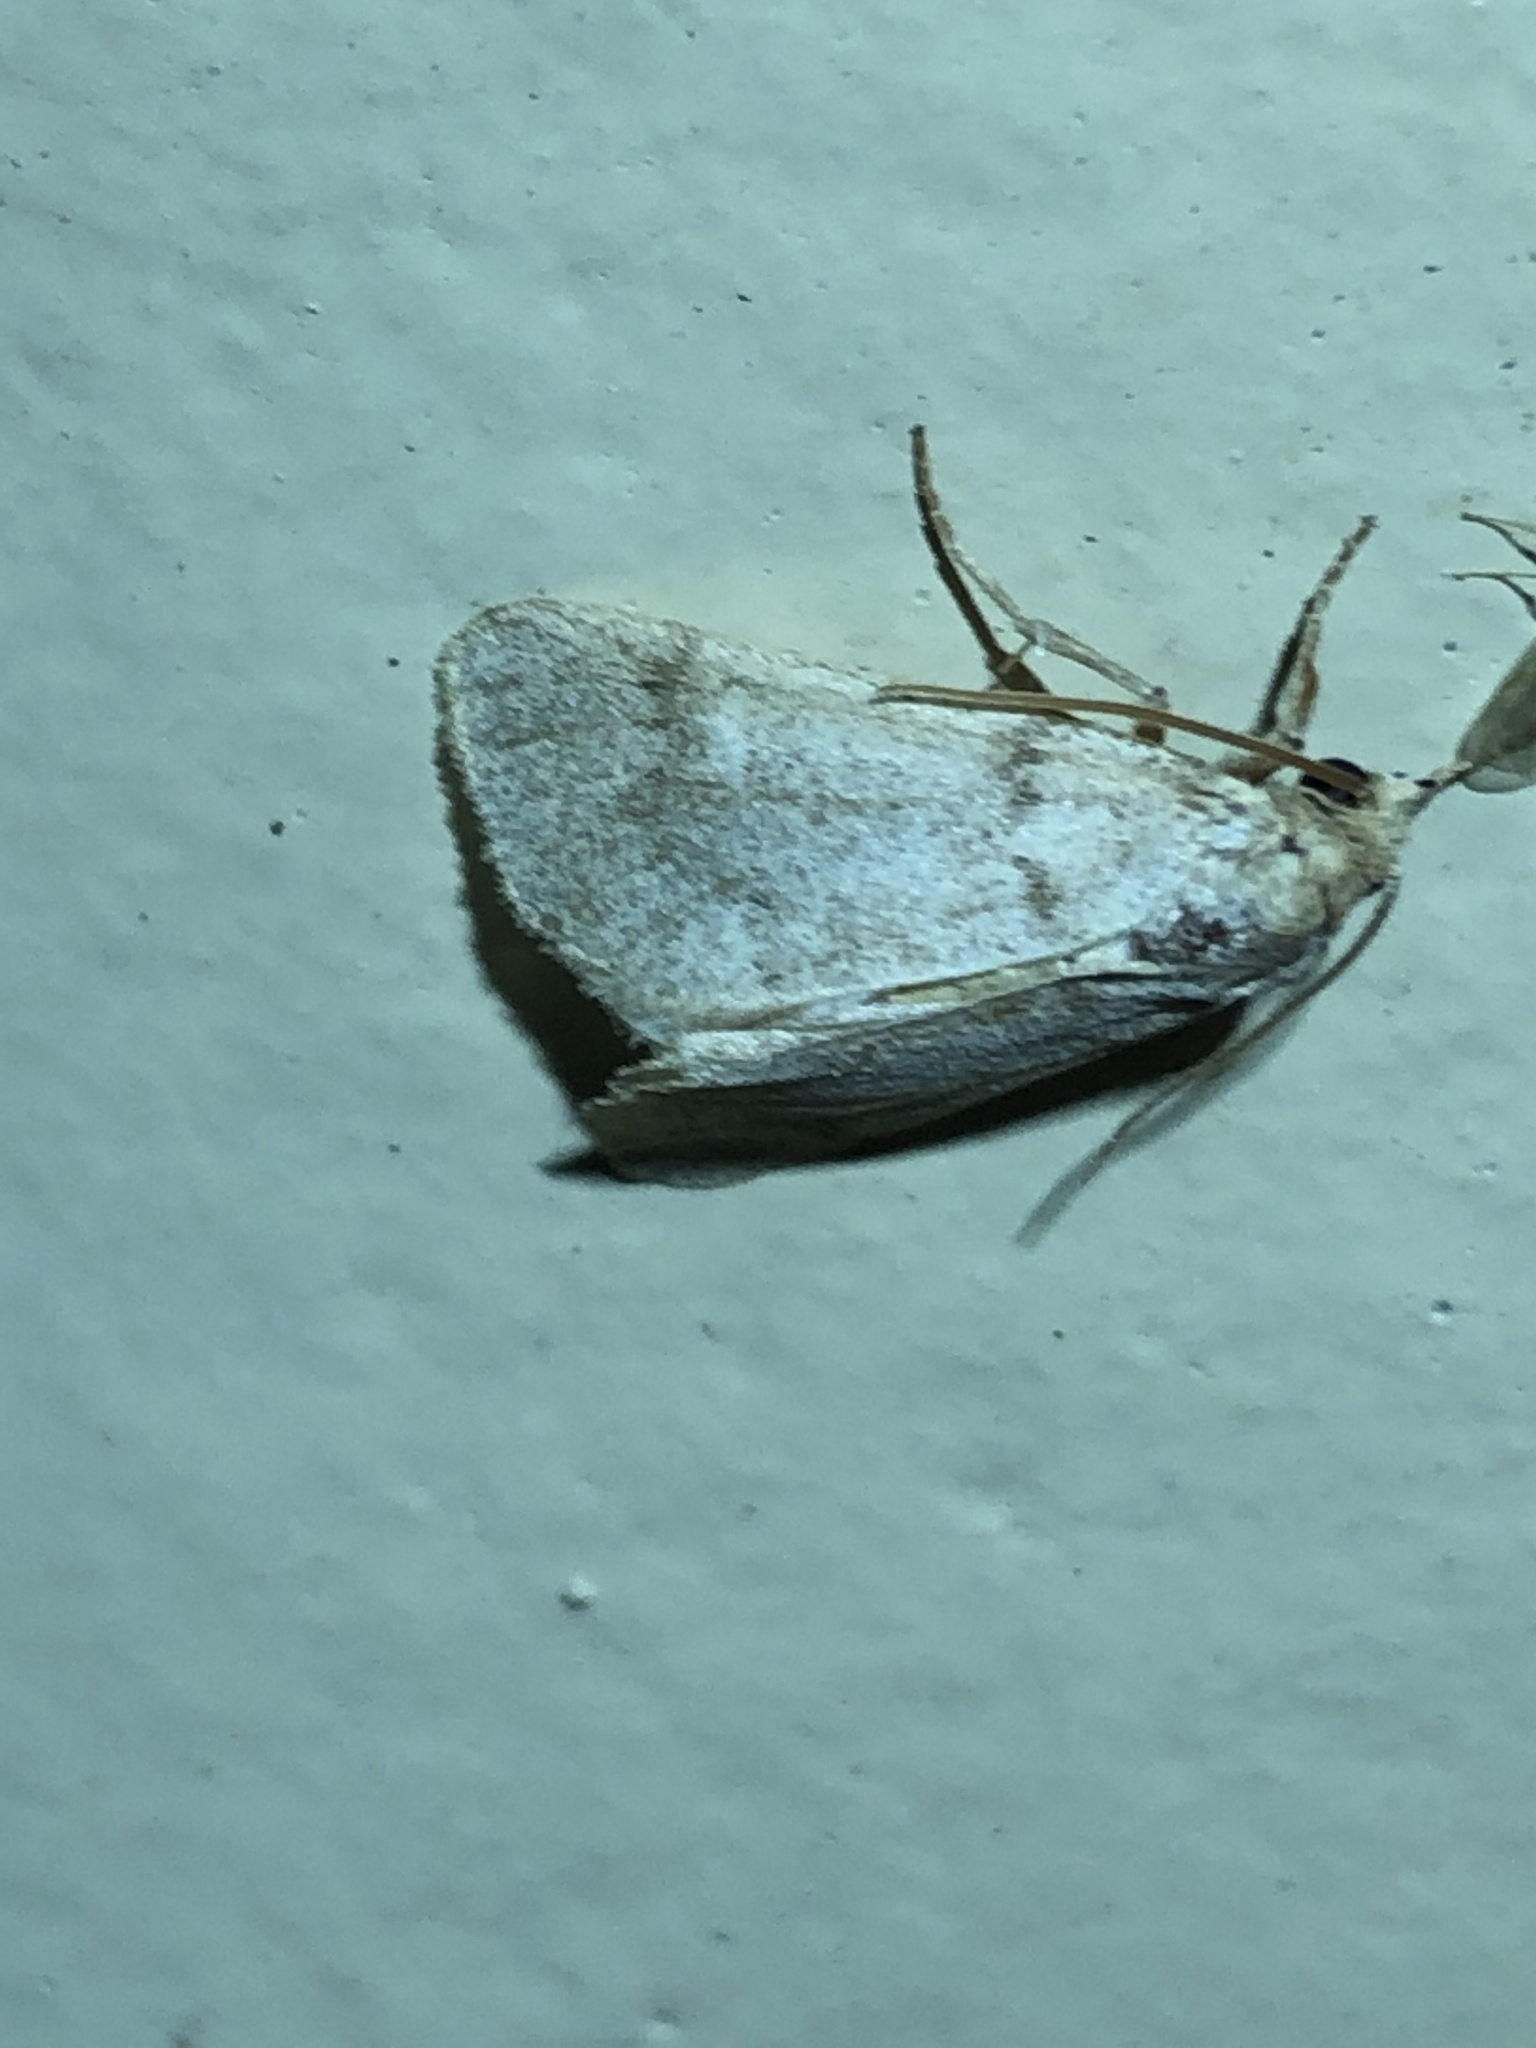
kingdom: Animalia
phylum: Arthropoda
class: Insecta
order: Lepidoptera
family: Noctuidae
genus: Narthecophora
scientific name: Narthecophora pulverea
